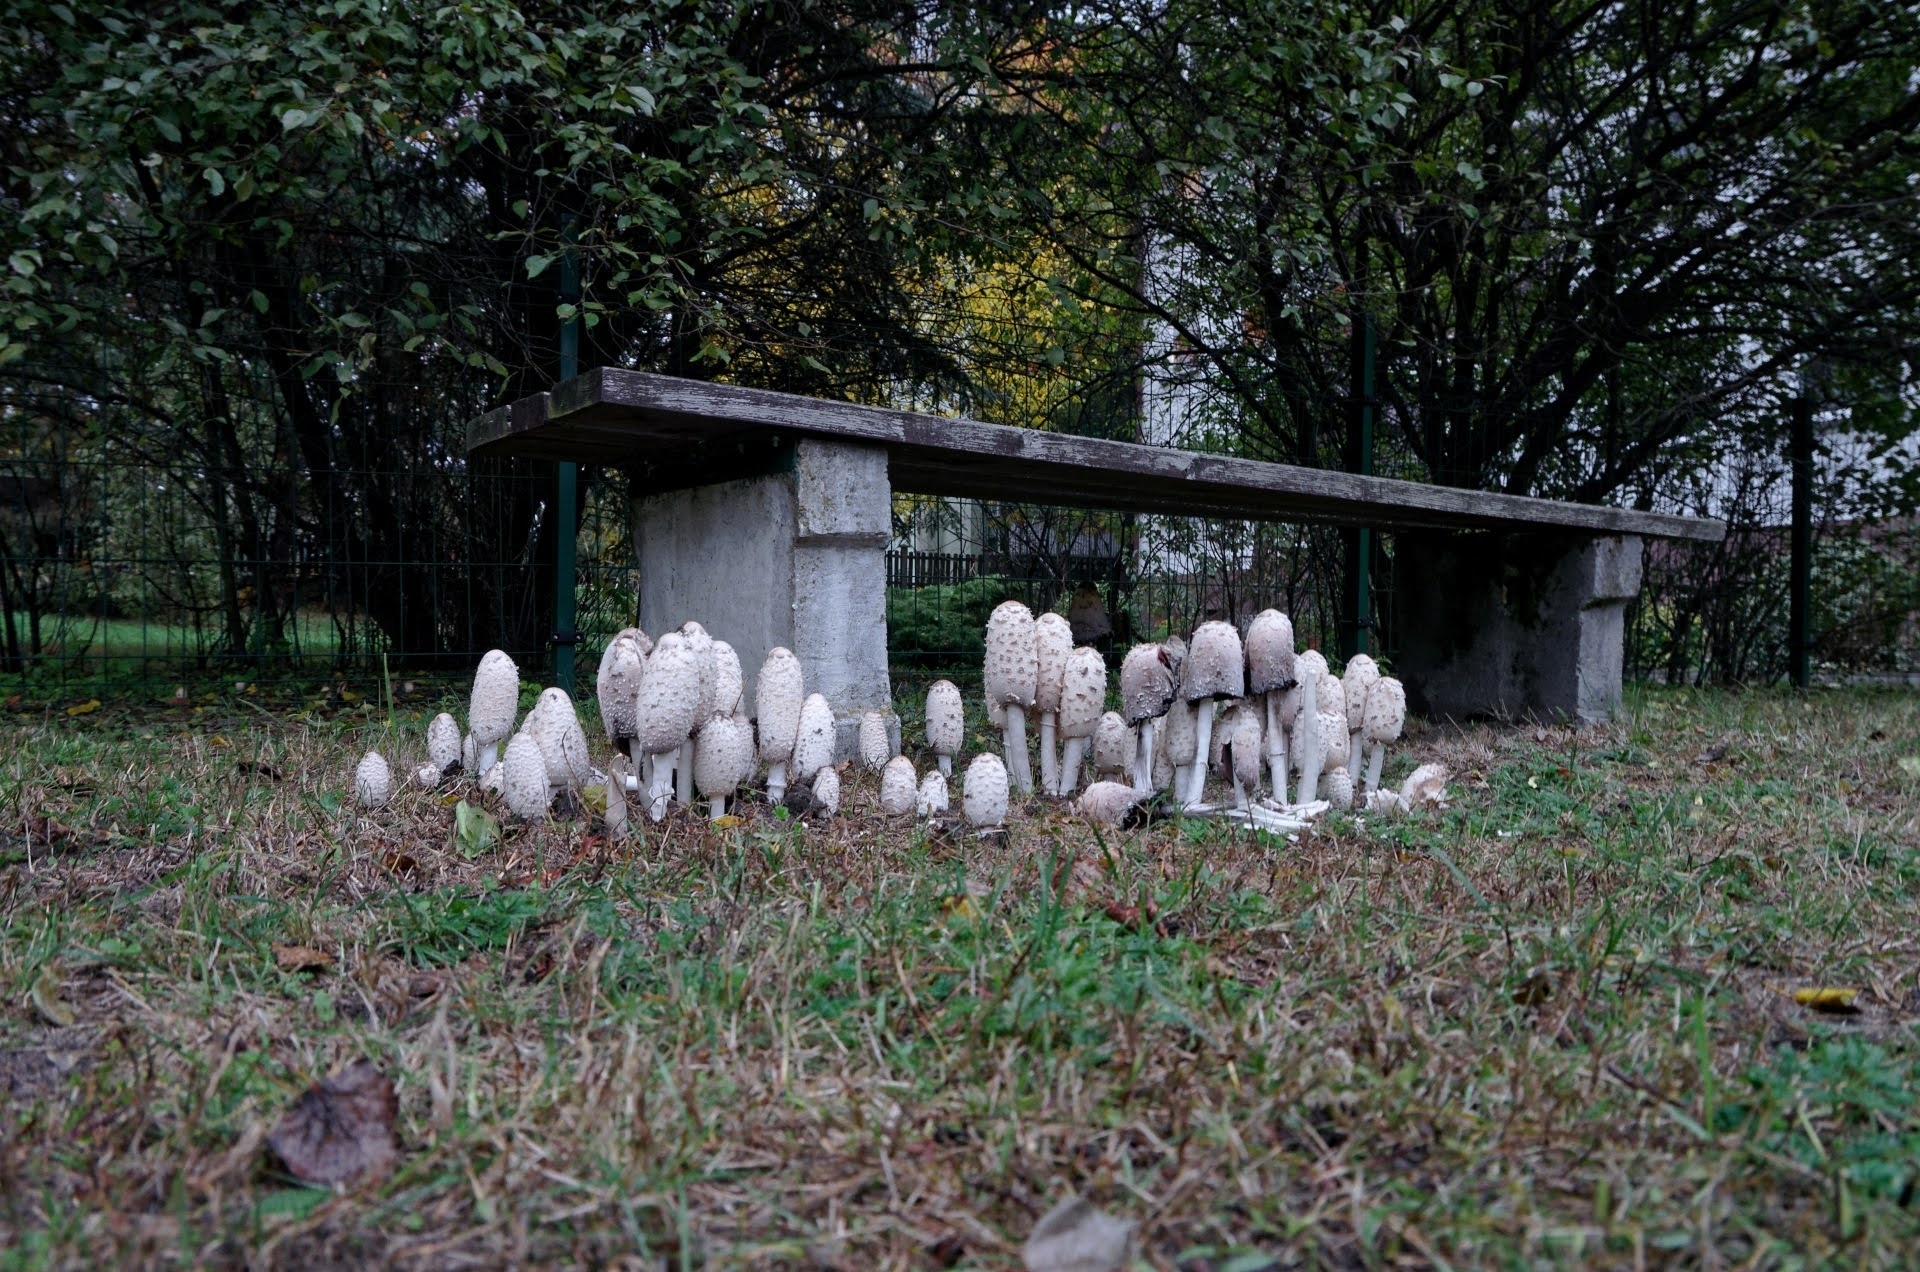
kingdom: Fungi
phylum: Basidiomycota
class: Agaricomycetes
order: Agaricales
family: Agaricaceae
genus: Coprinus
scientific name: Coprinus comatus
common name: Lawyer's wig
